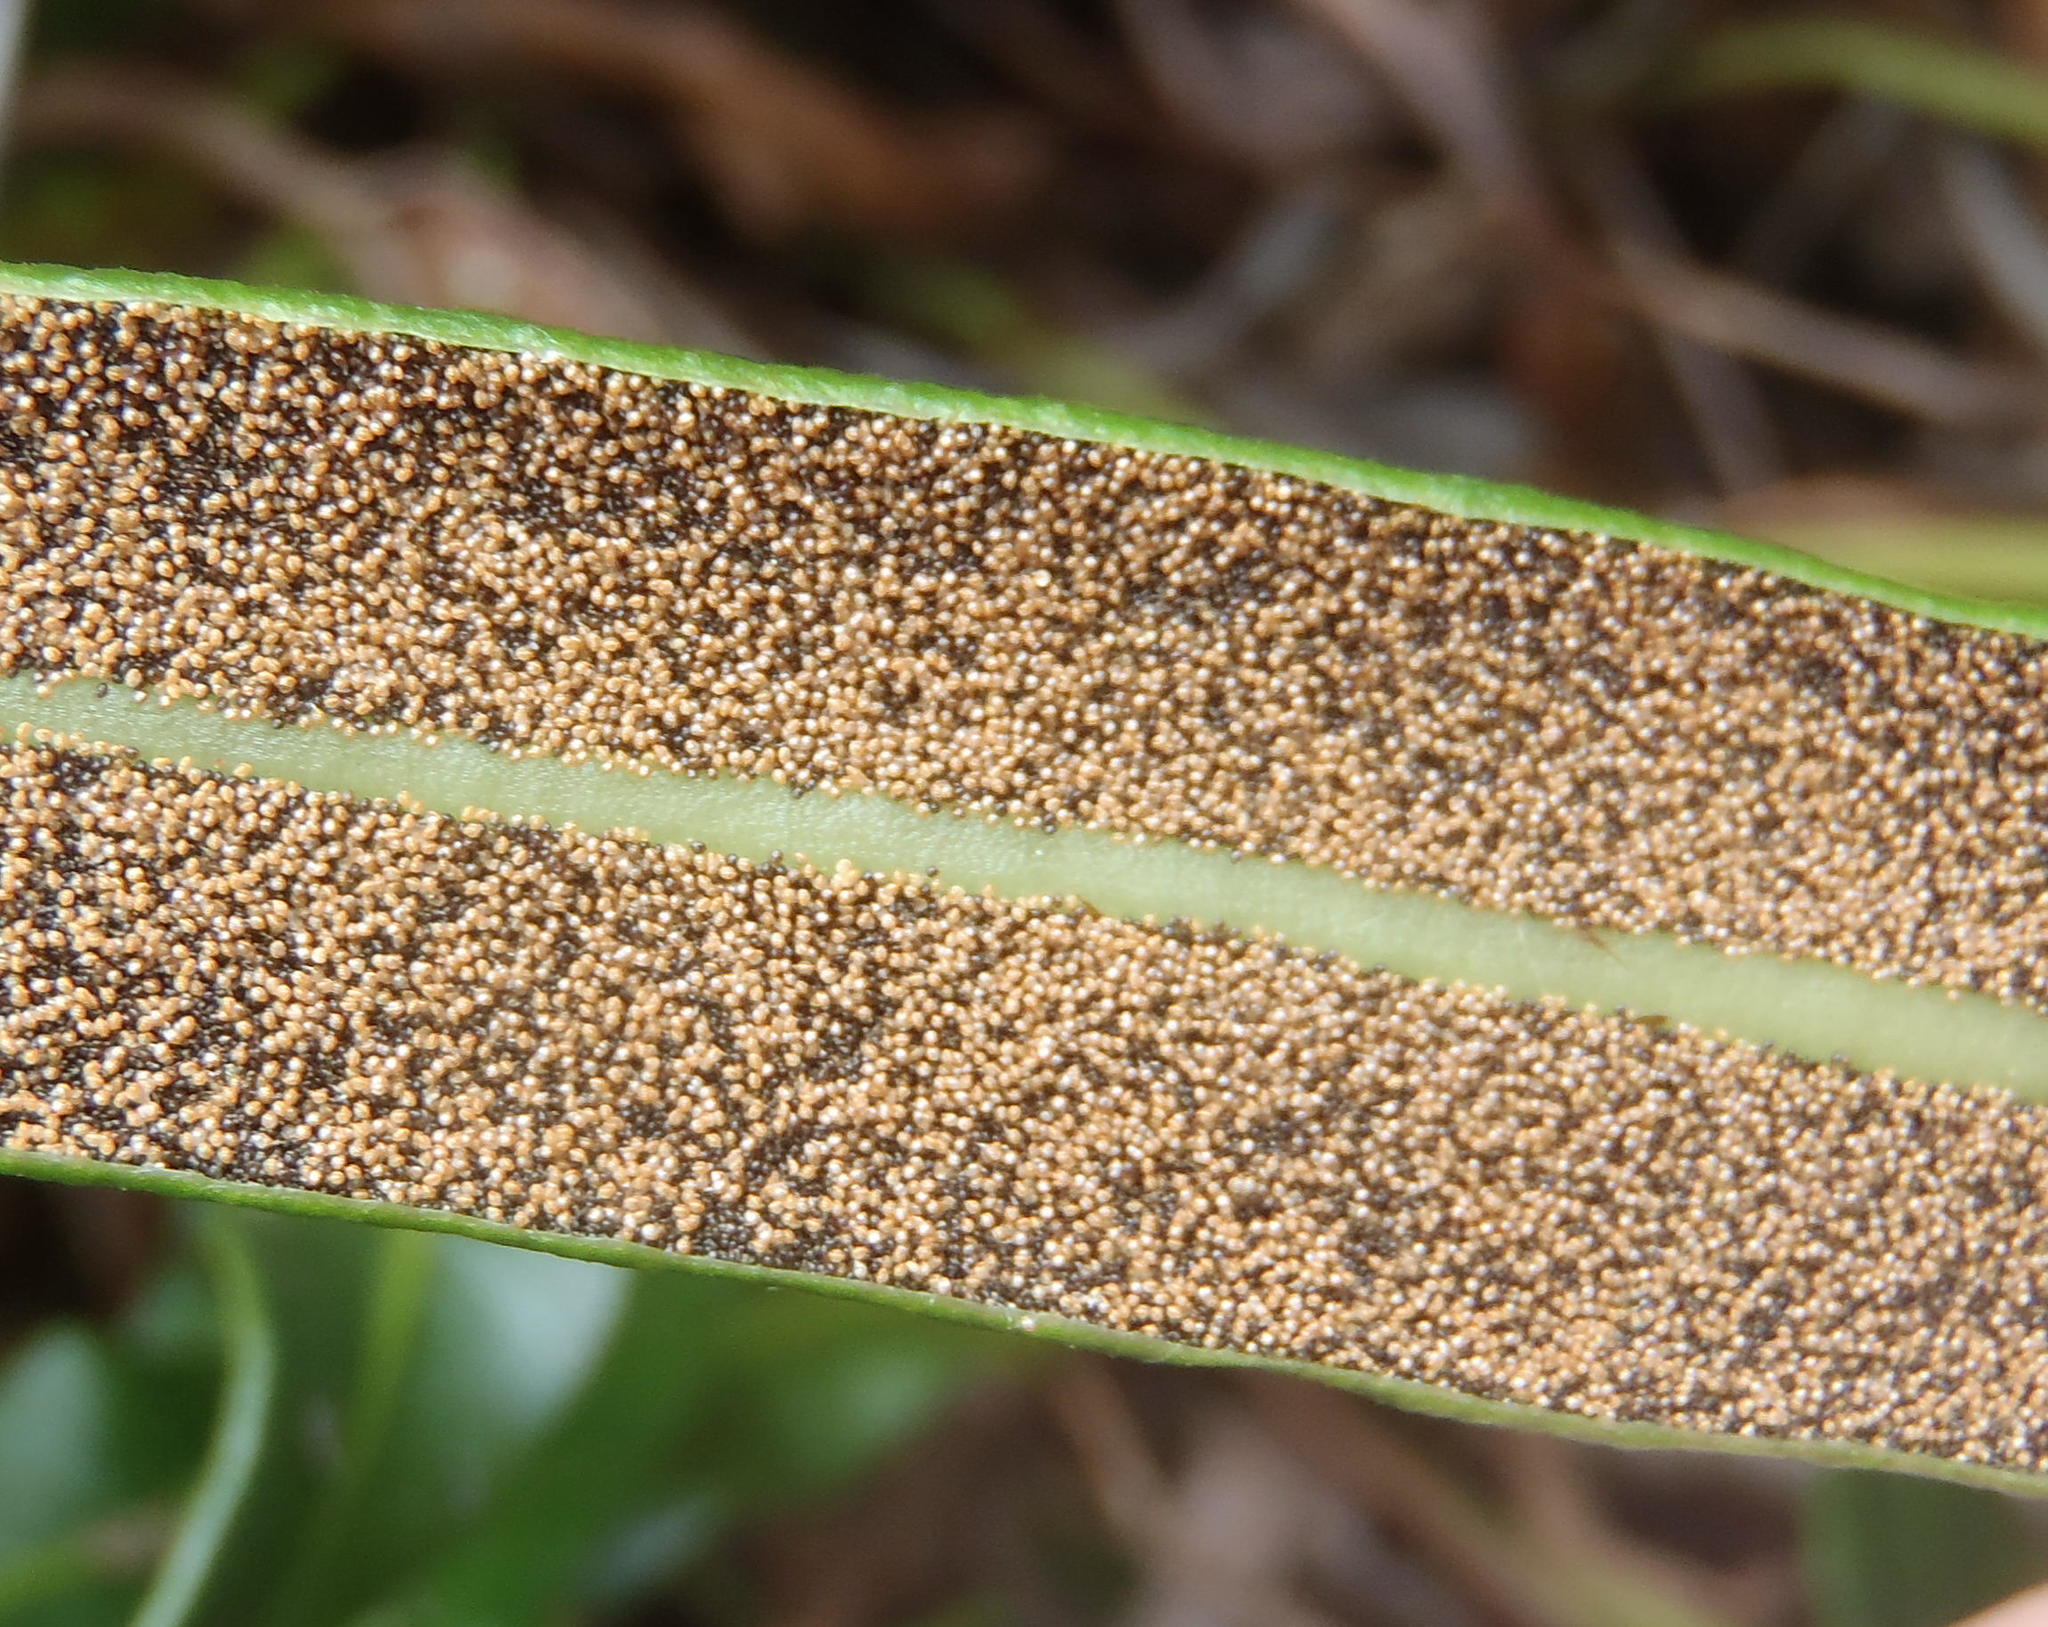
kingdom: Plantae
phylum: Tracheophyta
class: Polypodiopsida
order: Polypodiales
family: Dryopteridaceae
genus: Elaphoglossum
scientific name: Elaphoglossum acrostichoides
